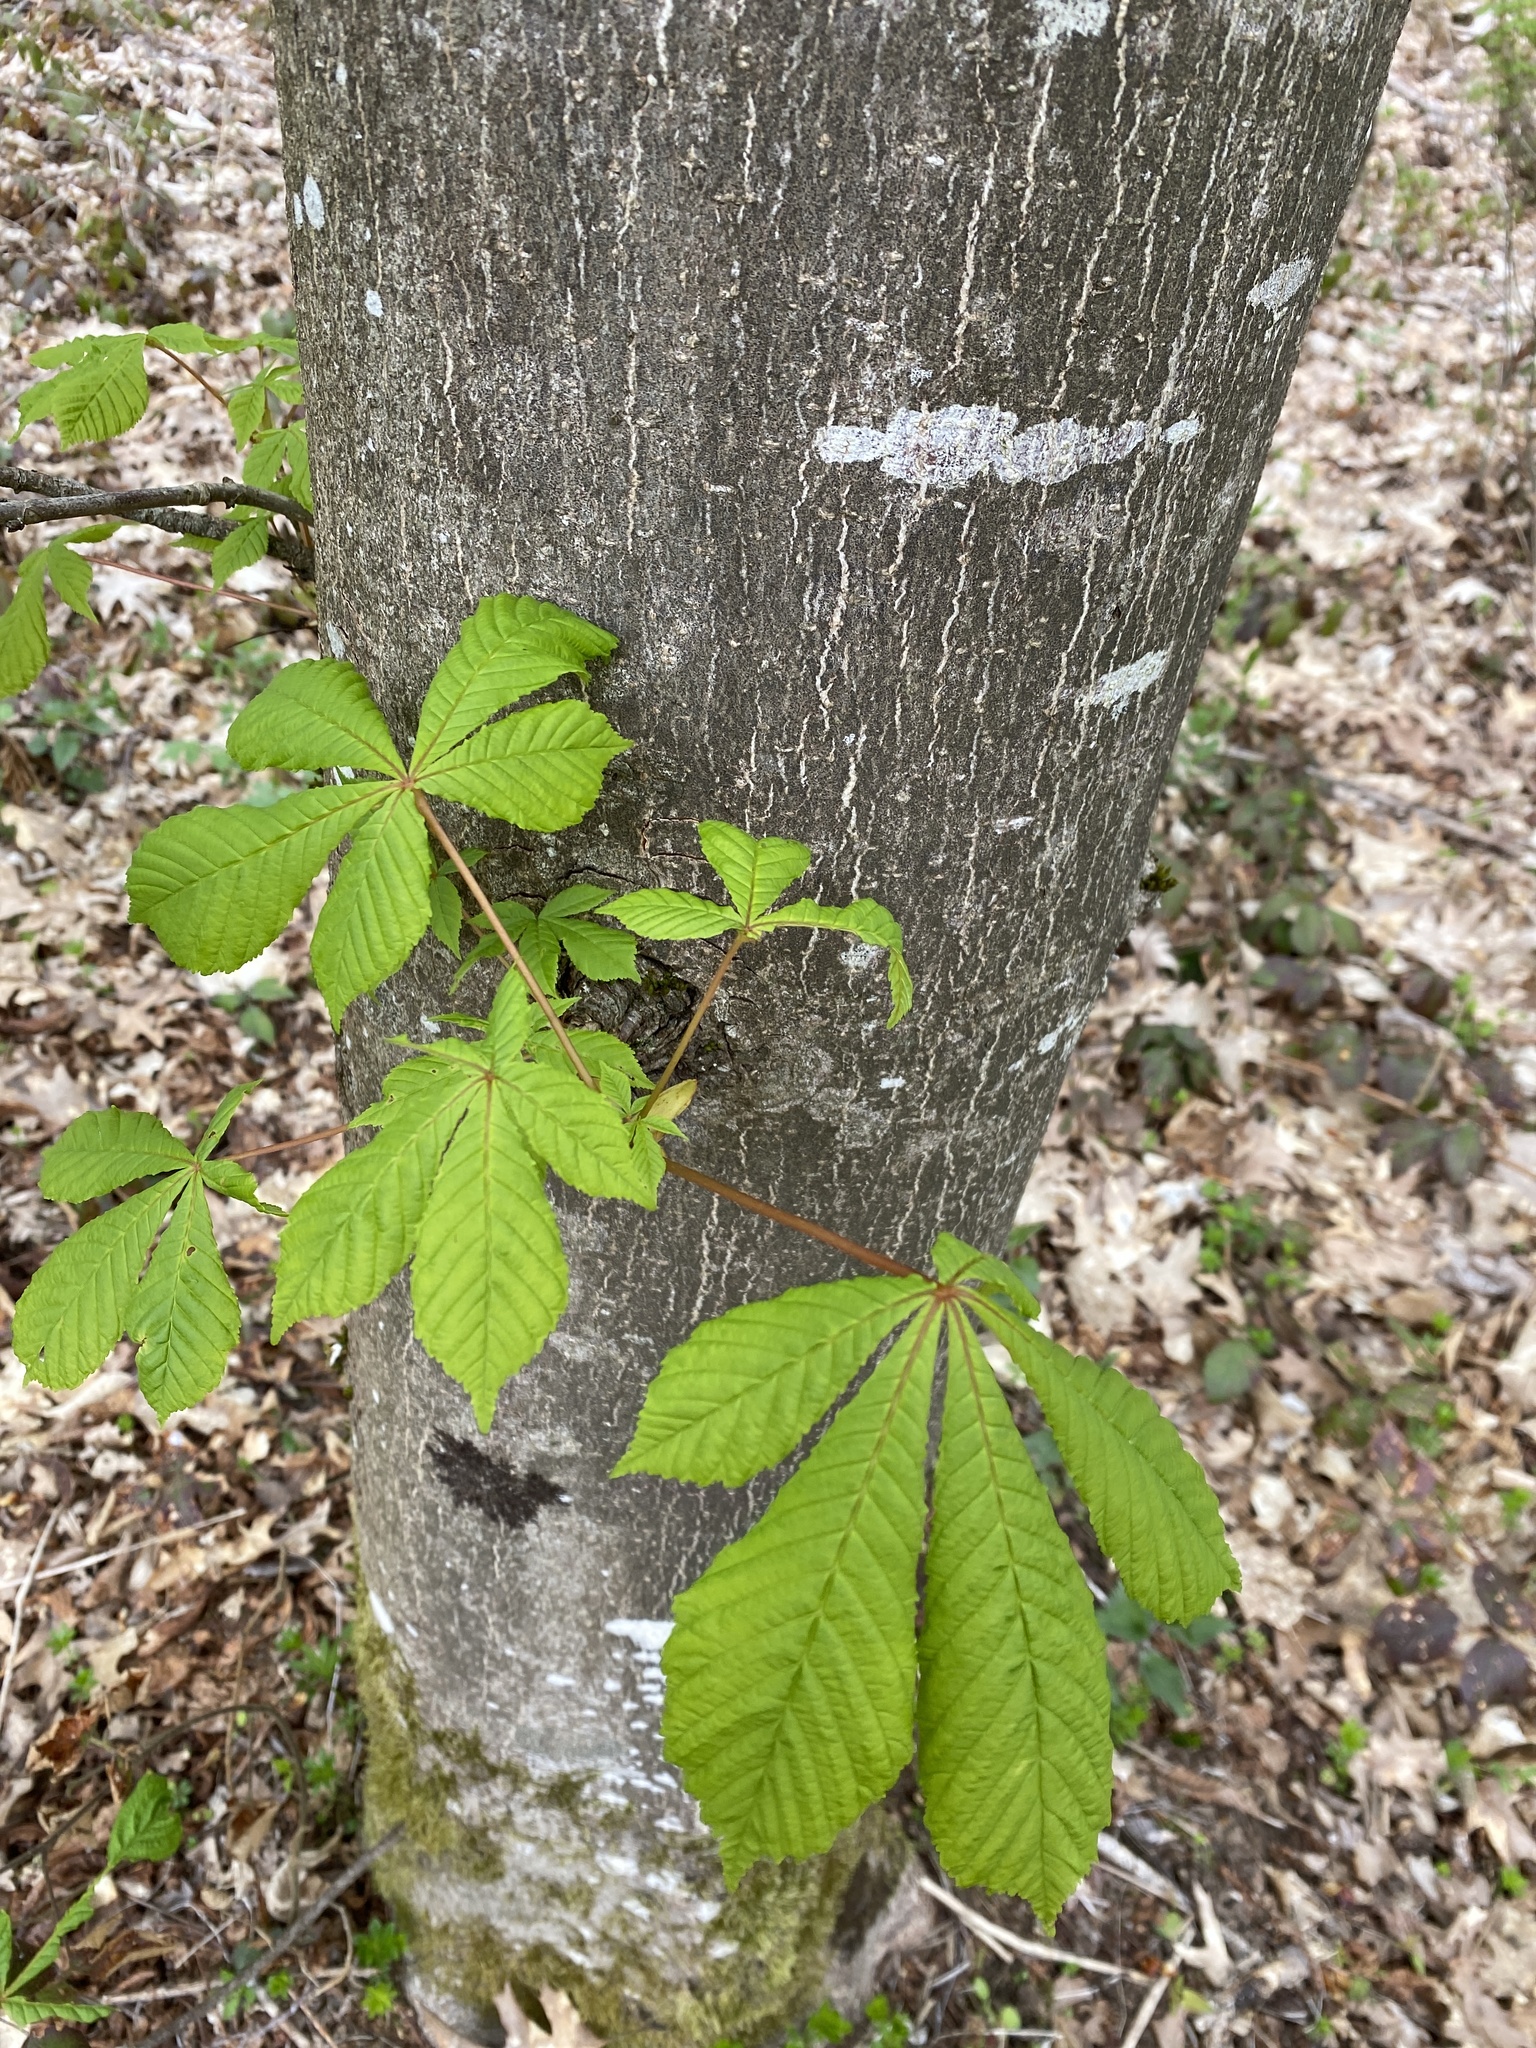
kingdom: Plantae
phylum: Tracheophyta
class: Magnoliopsida
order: Sapindales
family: Sapindaceae
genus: Aesculus
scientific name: Aesculus hippocastanum
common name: Horse-chestnut
